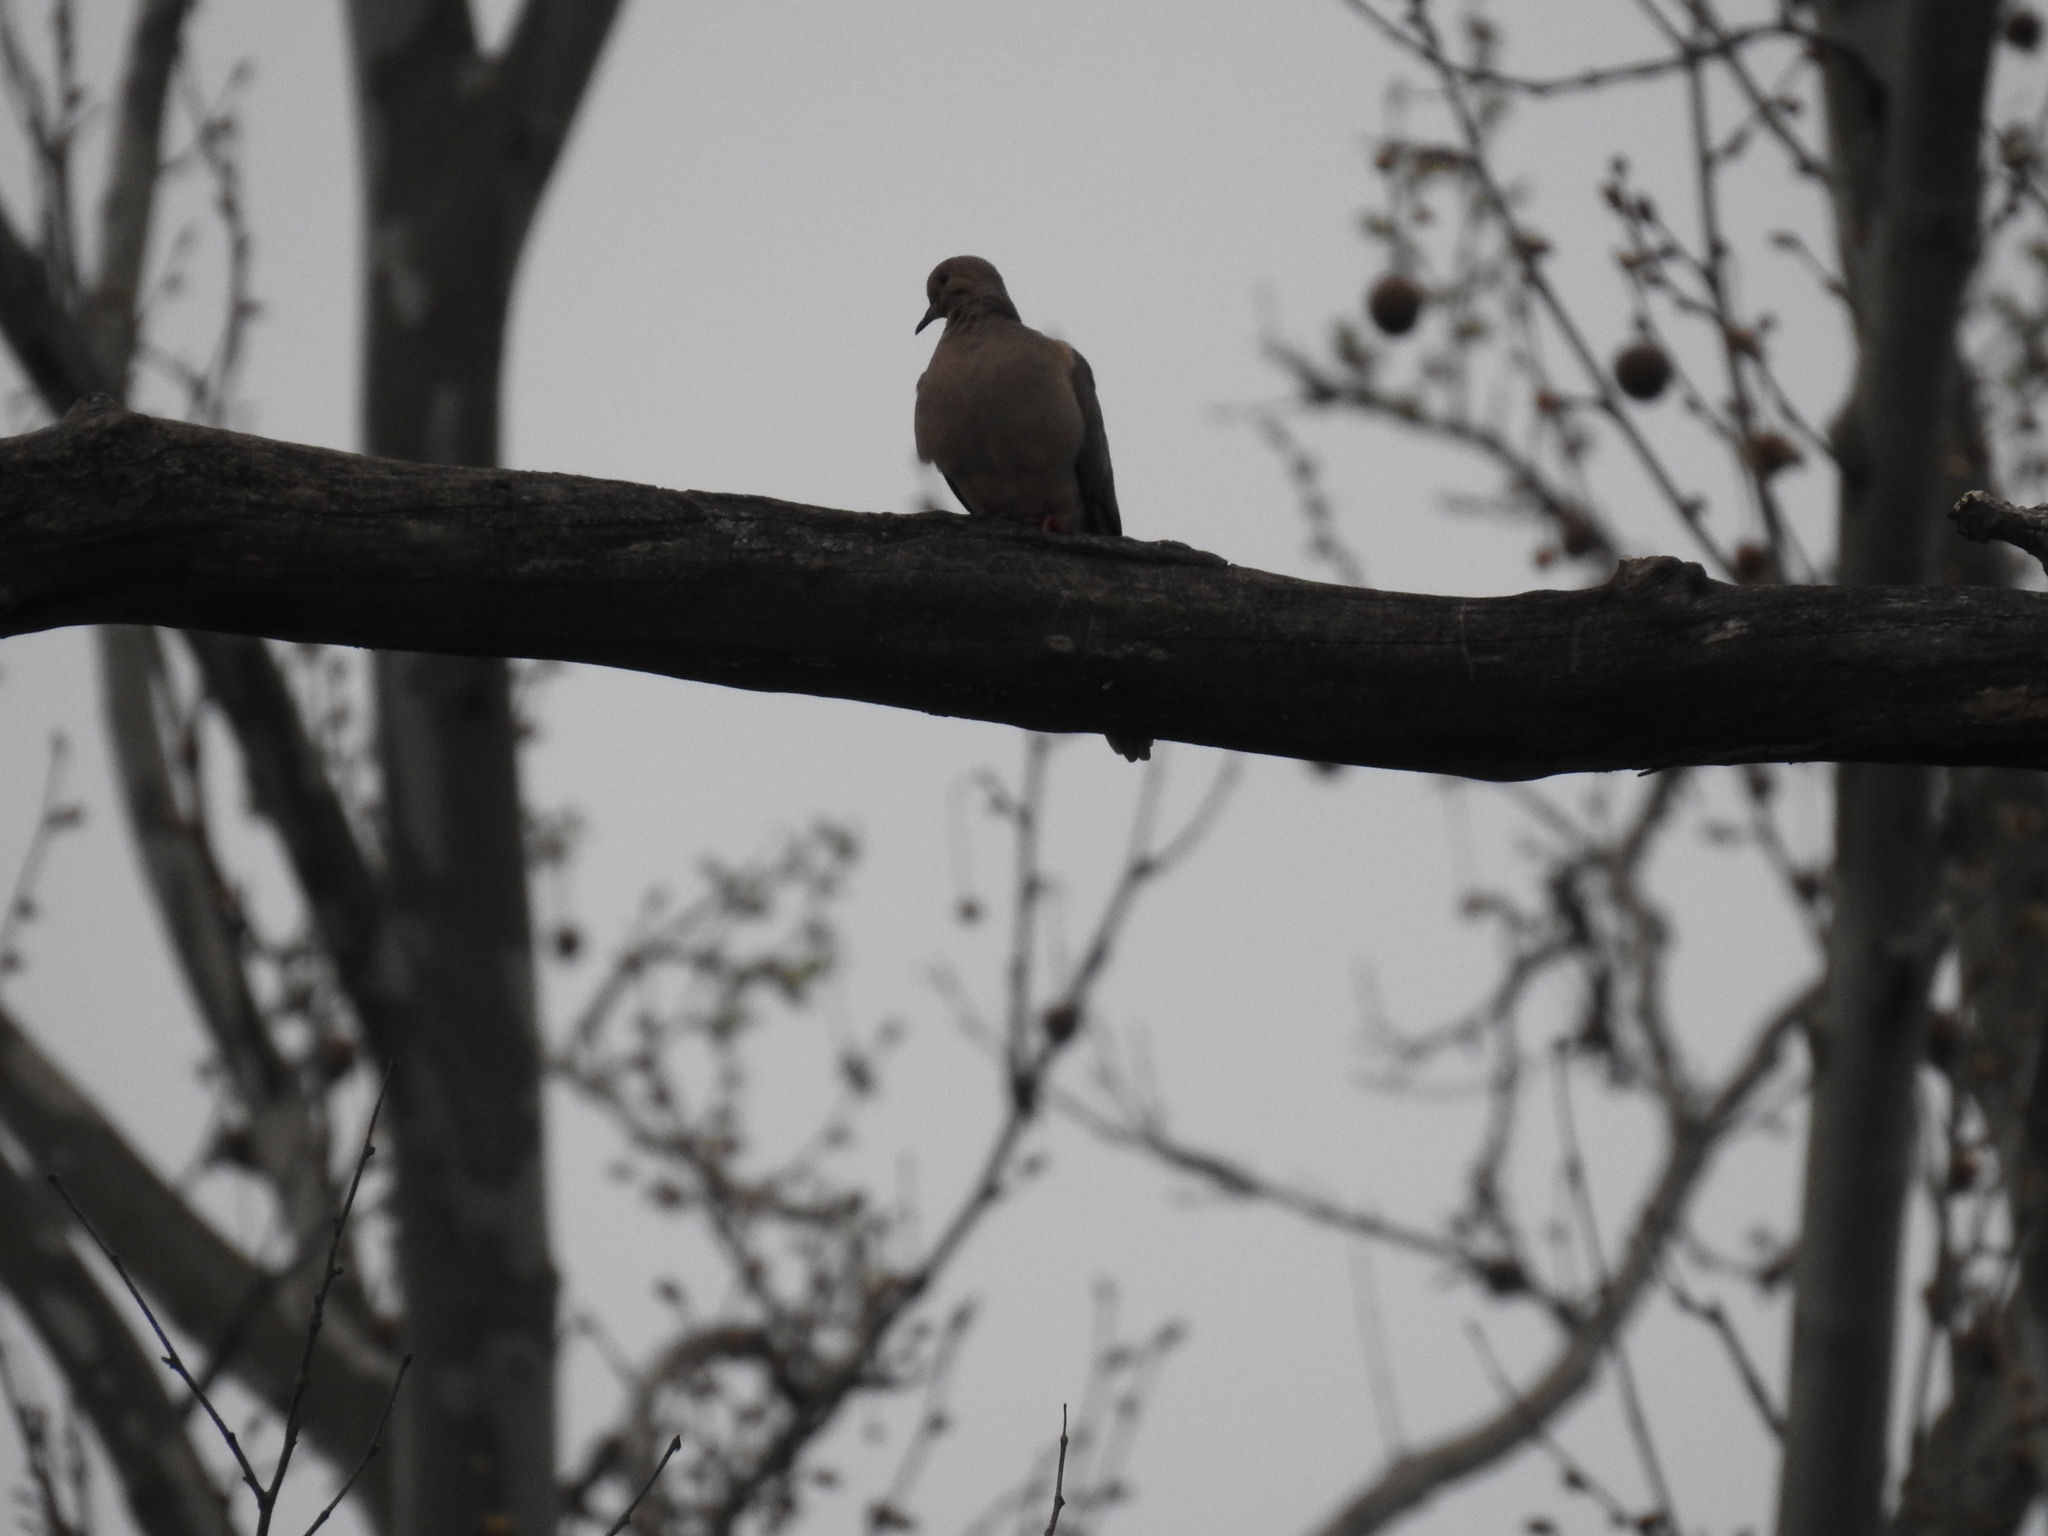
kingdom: Animalia
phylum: Chordata
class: Aves
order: Columbiformes
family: Columbidae
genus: Zenaida
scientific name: Zenaida macroura
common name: Mourning dove
